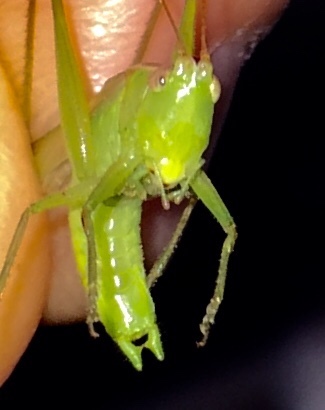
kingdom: Animalia
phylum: Arthropoda
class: Insecta
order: Orthoptera
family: Tettigoniidae
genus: Conocephalus
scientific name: Conocephalus fasciatus
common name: Slender meadow katydid
